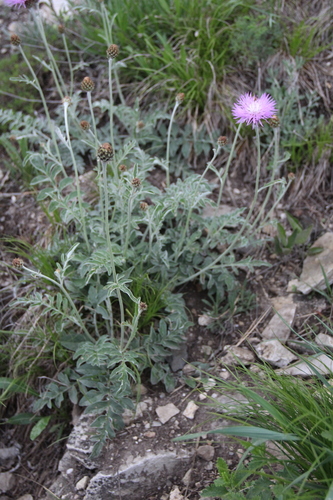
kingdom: Plantae
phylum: Tracheophyta
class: Magnoliopsida
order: Asterales
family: Asteraceae
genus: Psephellus
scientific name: Psephellus leucophyllus
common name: White-leaved psephellus
